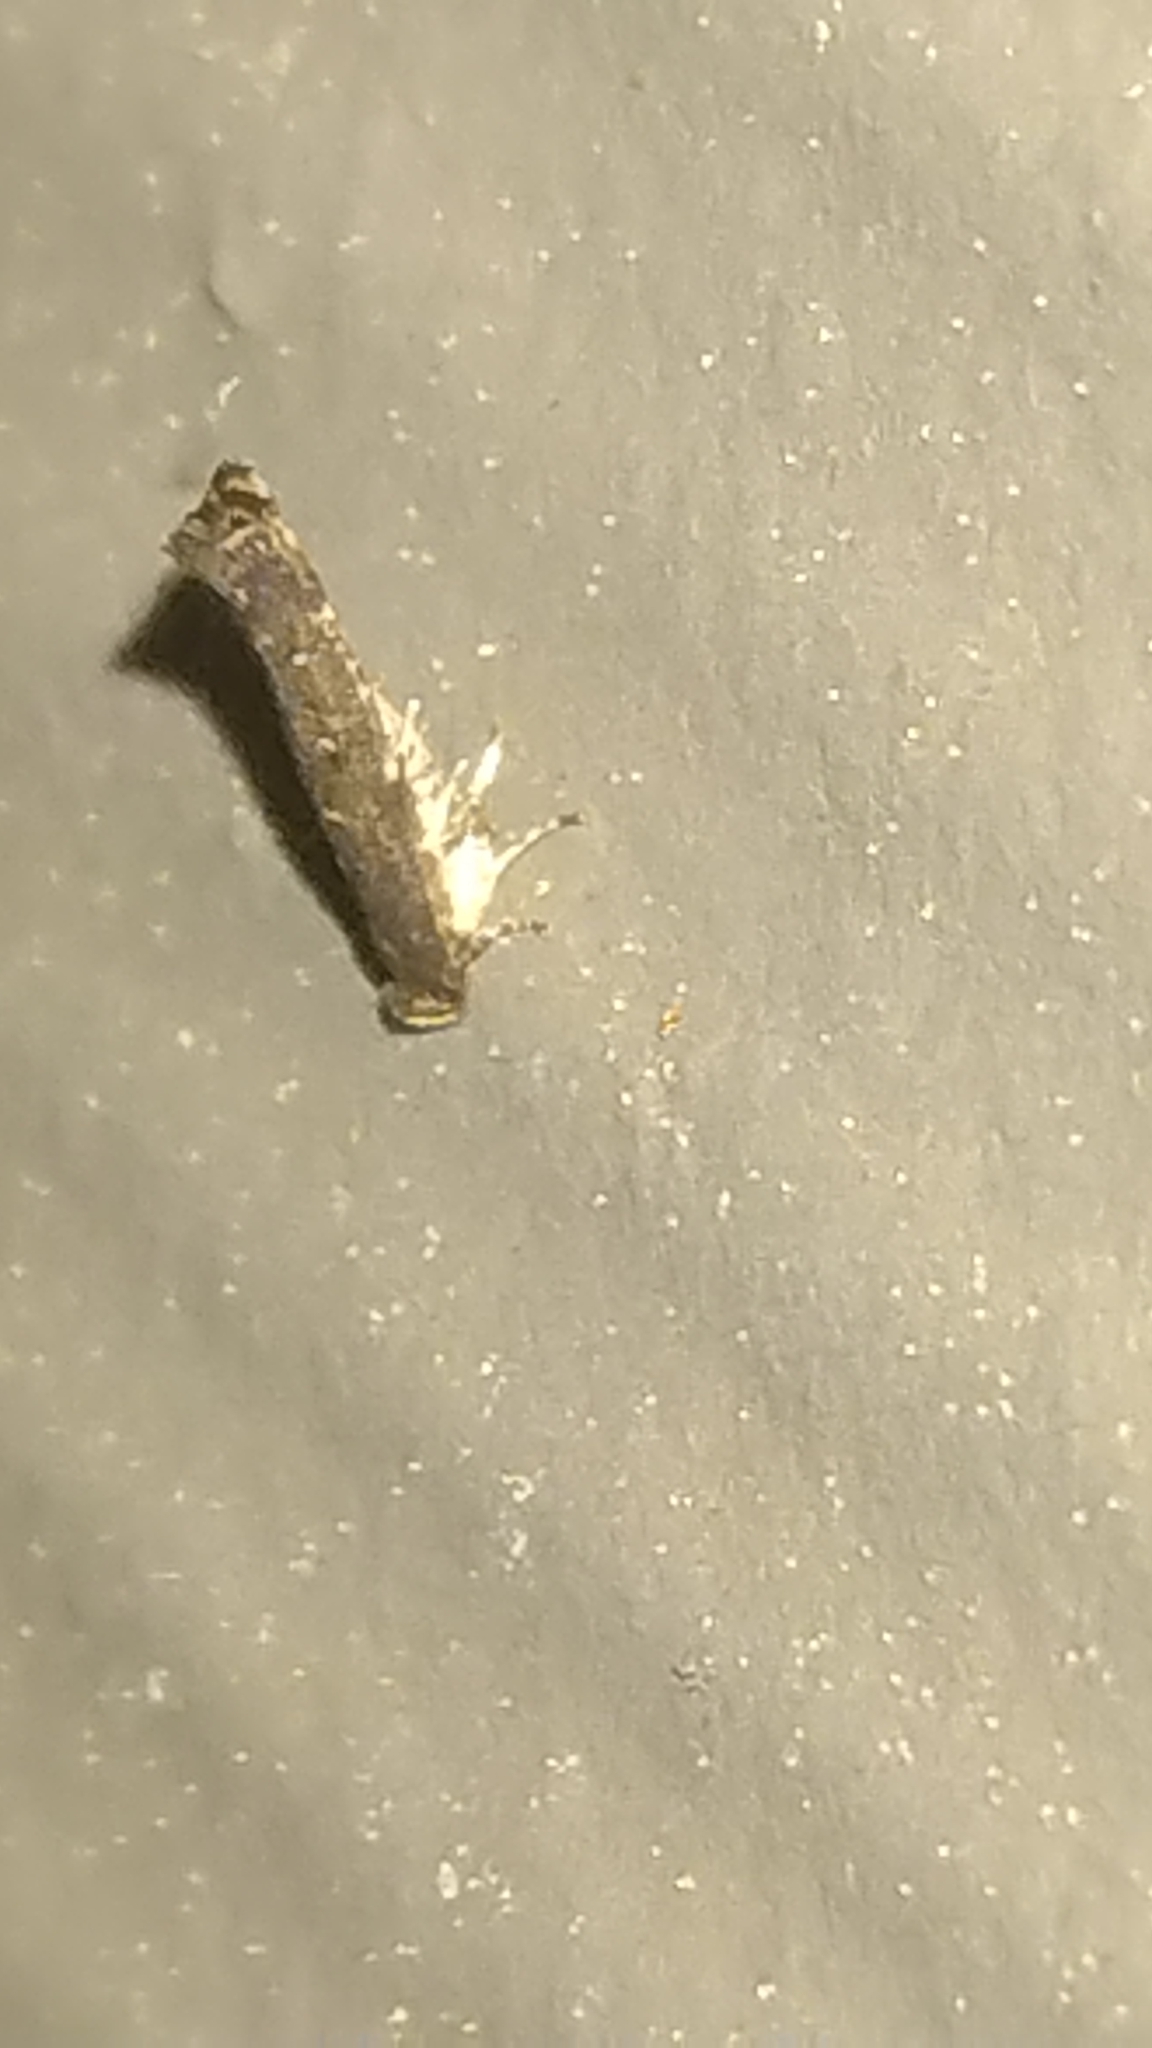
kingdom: Animalia
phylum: Arthropoda
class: Insecta
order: Lepidoptera
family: Cosmopterigidae
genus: Ithome
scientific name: Ithome erransella
